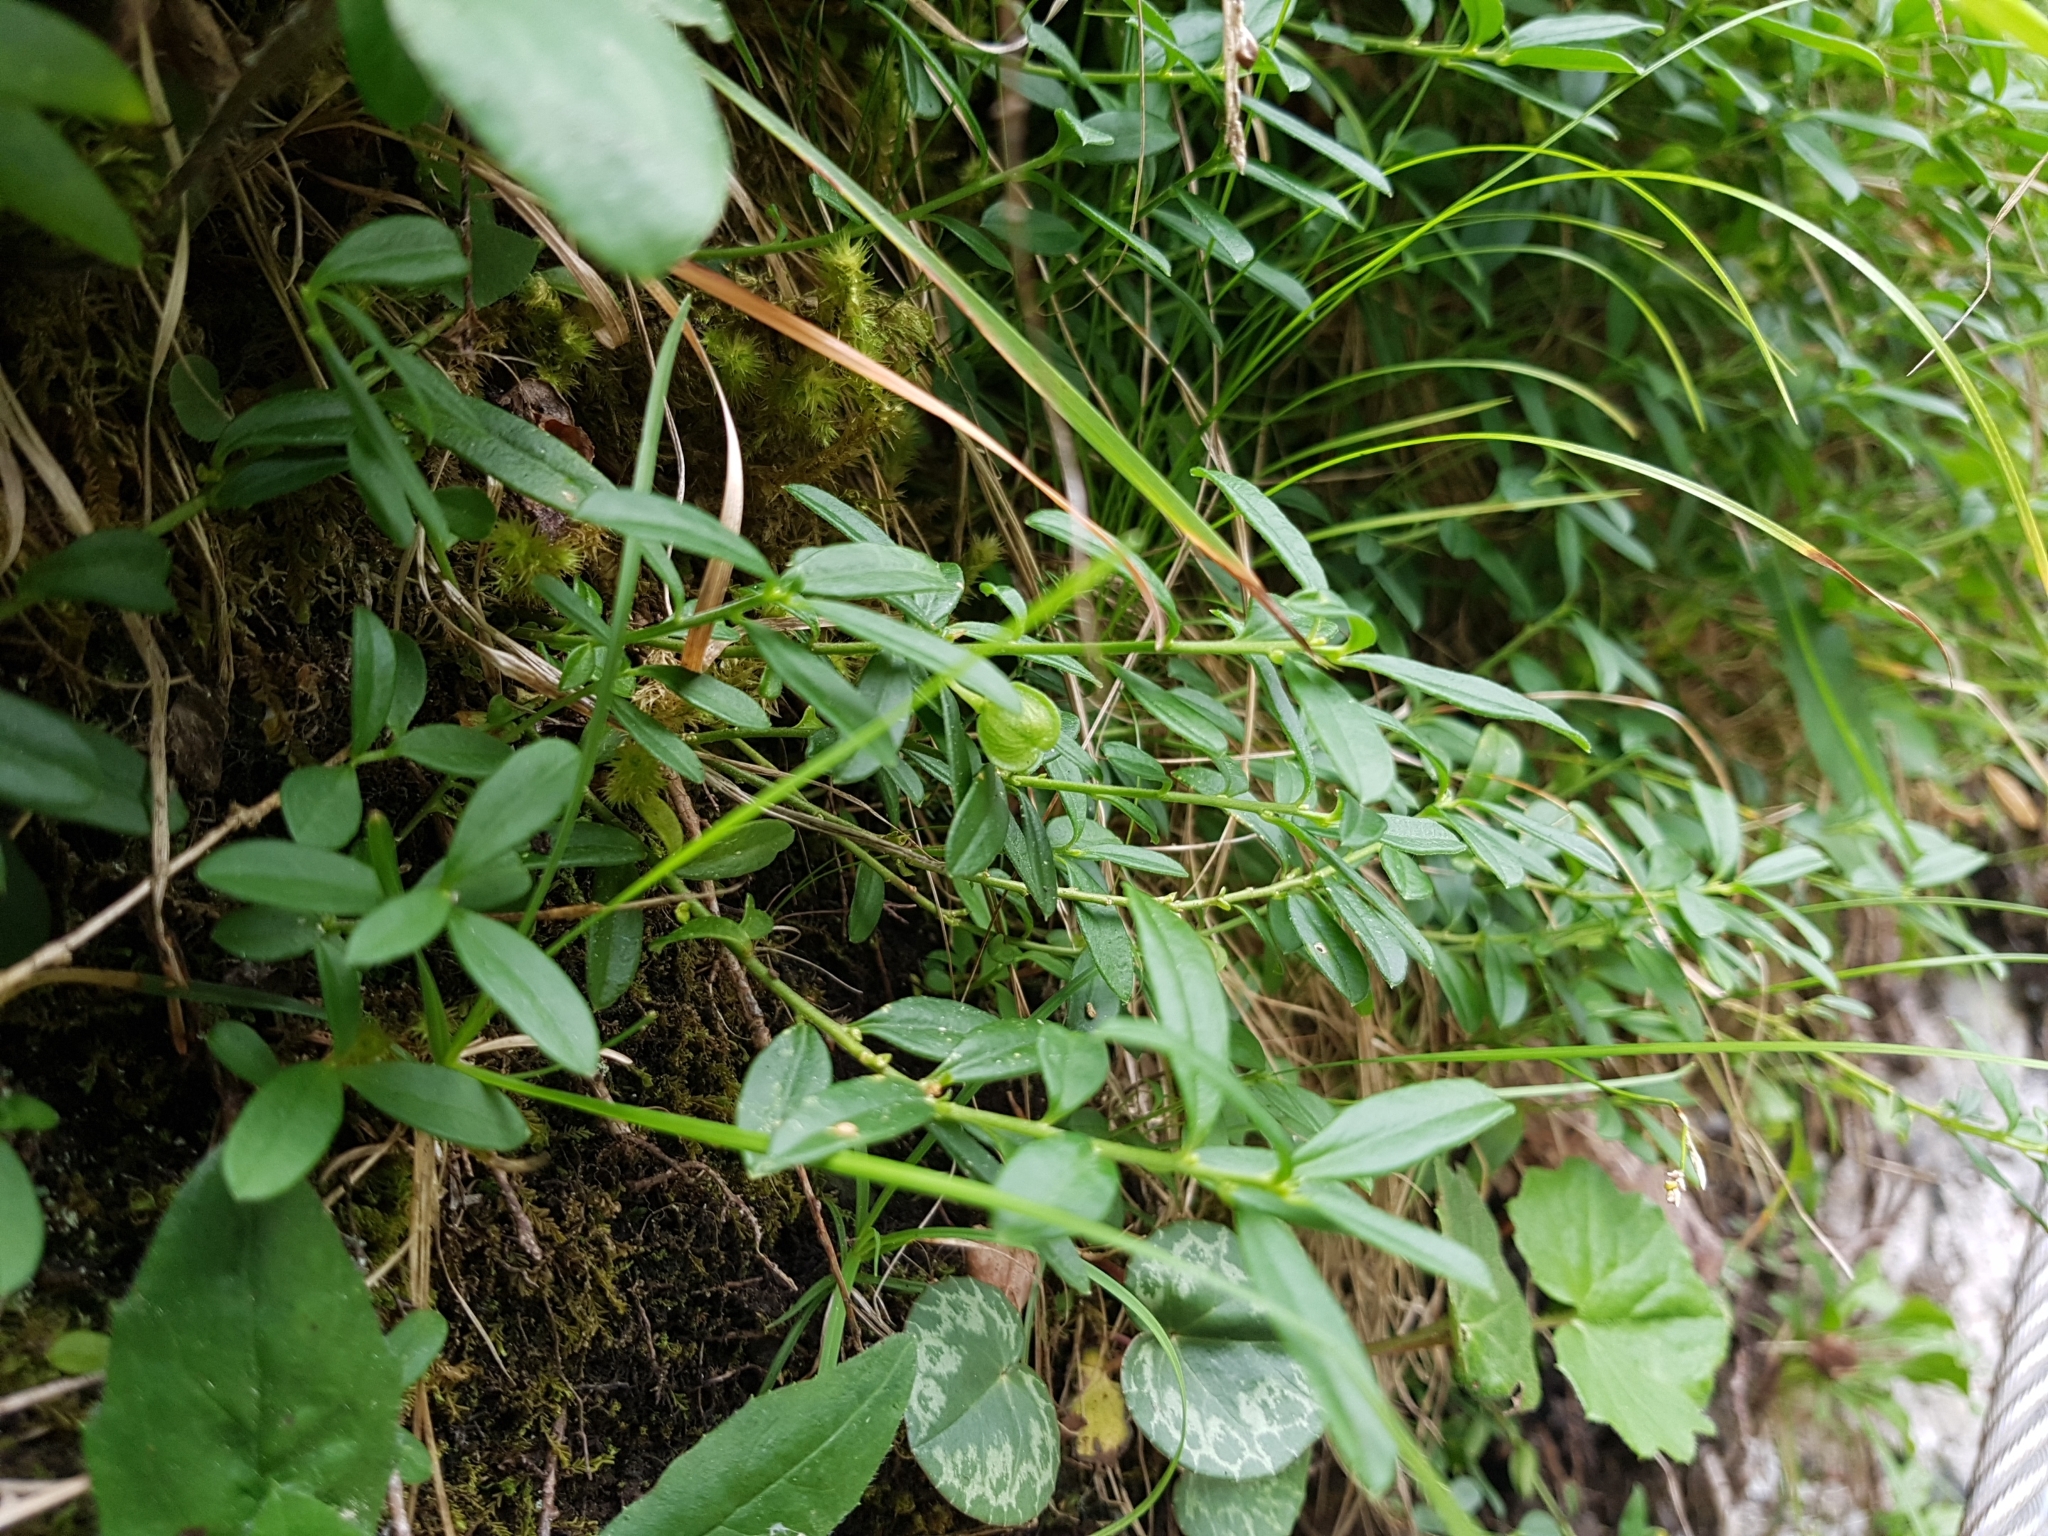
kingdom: Plantae
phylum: Tracheophyta
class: Magnoliopsida
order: Fabales
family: Polygalaceae
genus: Polygaloides
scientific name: Polygaloides chamaebuxus
